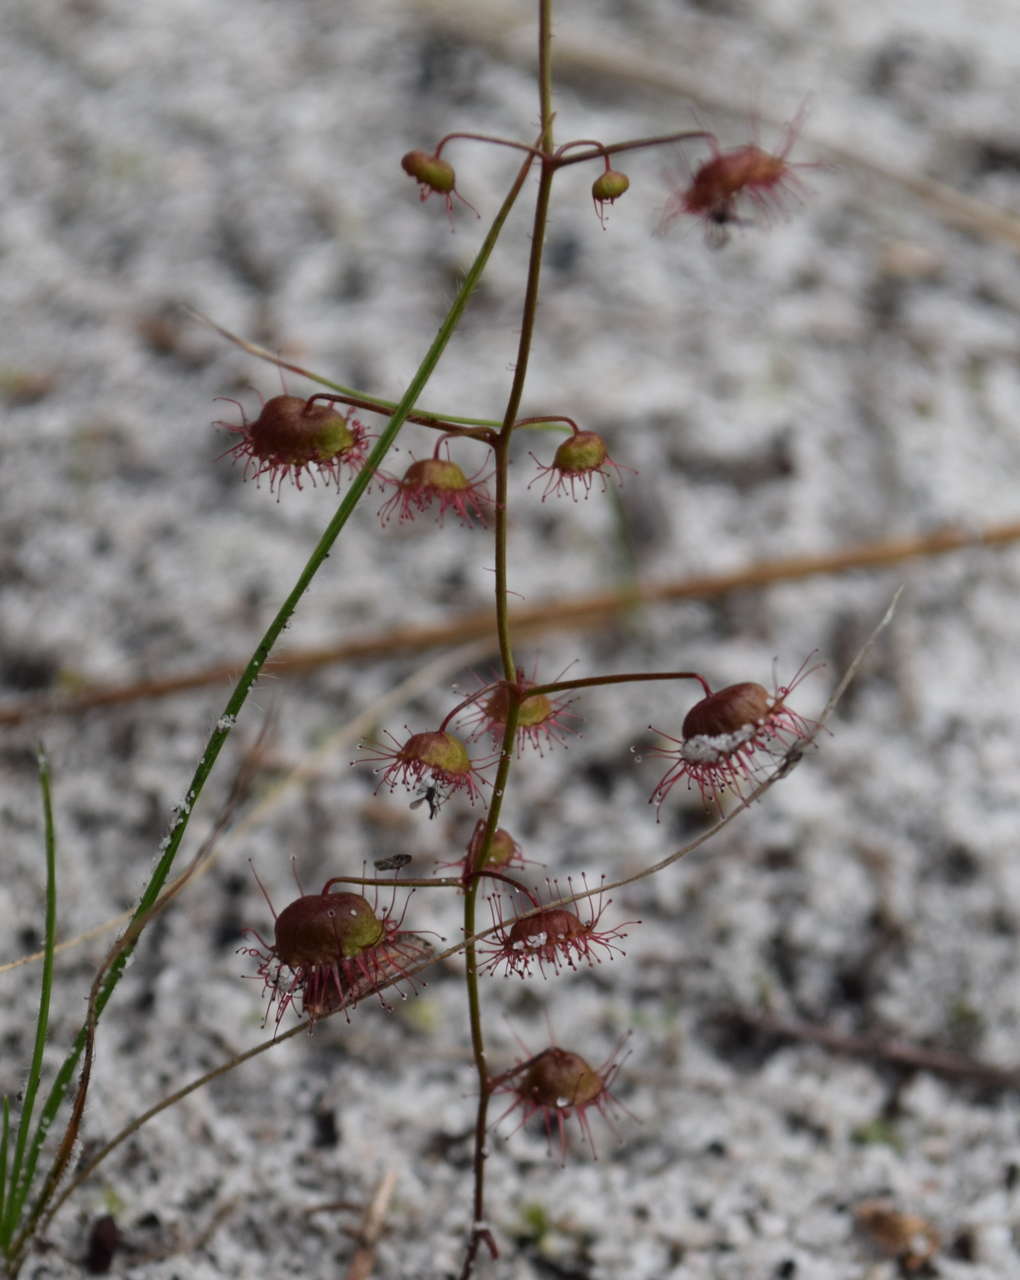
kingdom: Plantae
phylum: Tracheophyta
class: Magnoliopsida
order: Caryophyllales
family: Droseraceae
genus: Drosera
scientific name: Drosera planchonii
